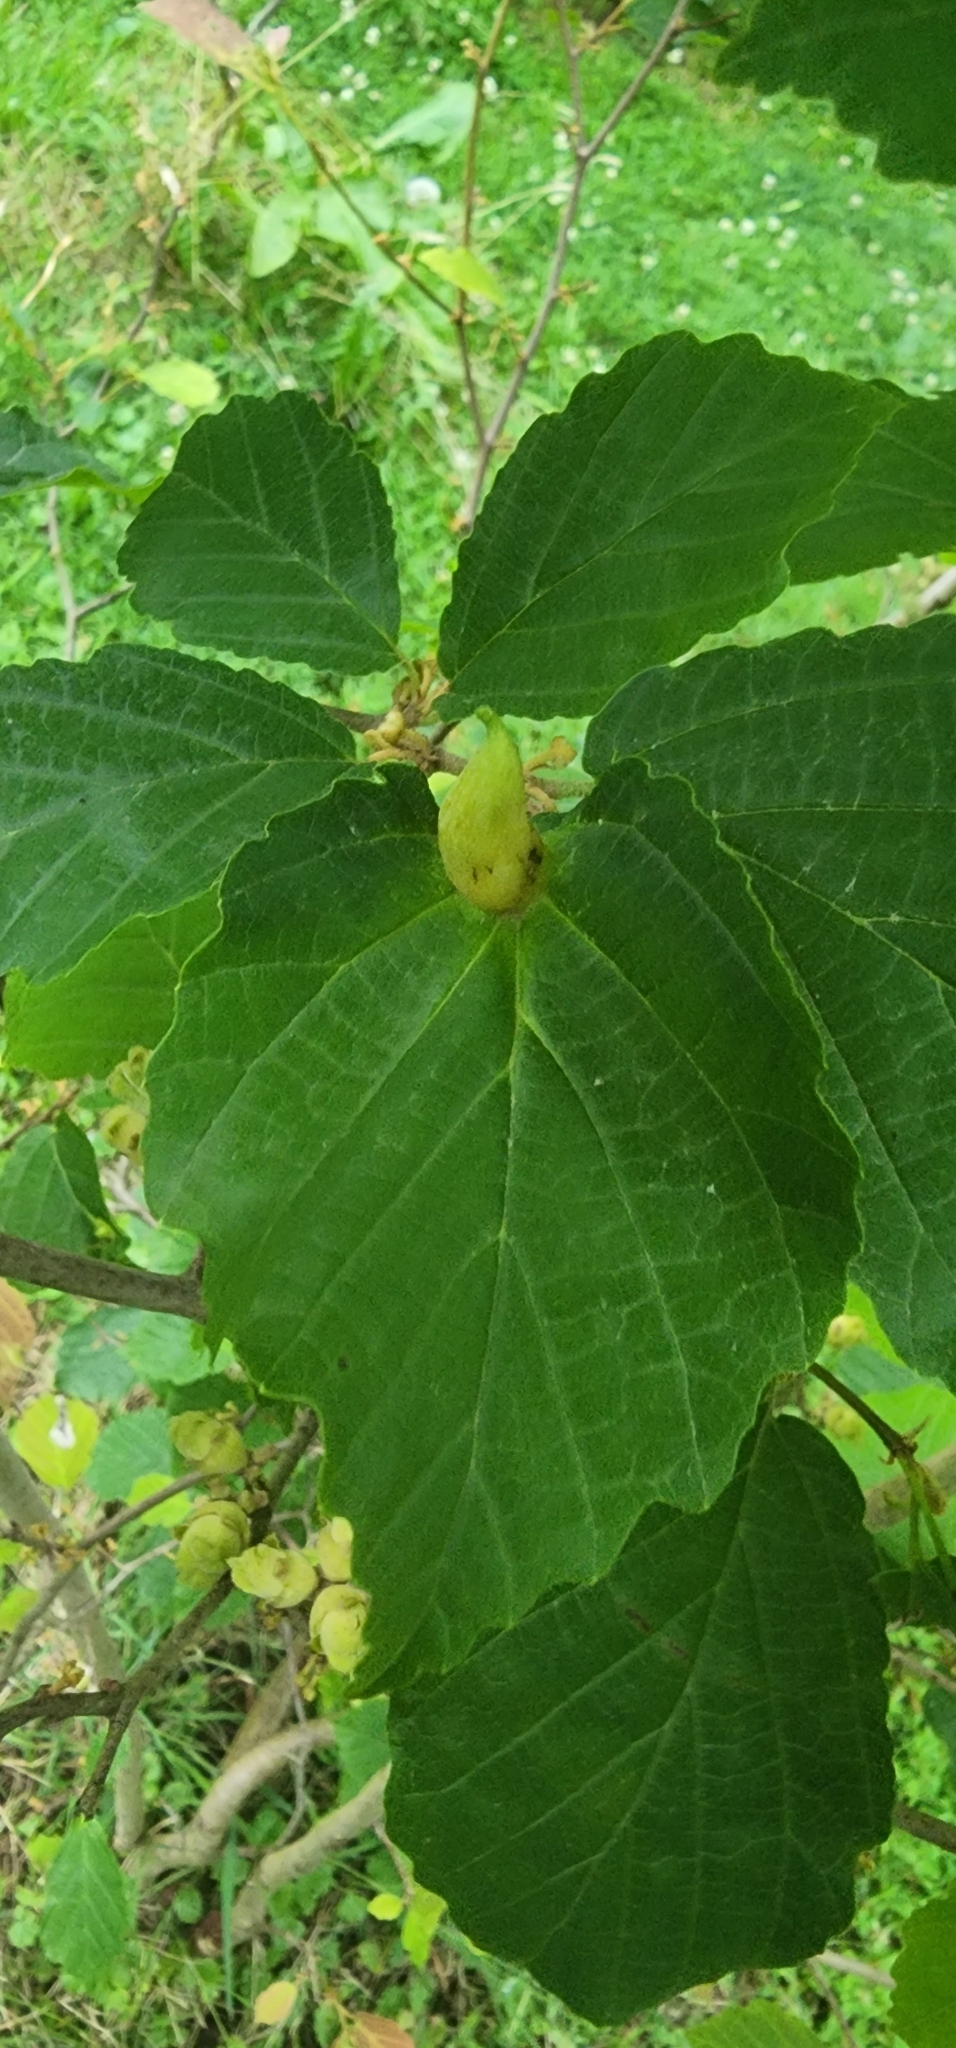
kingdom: Animalia
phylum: Arthropoda
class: Insecta
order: Hemiptera
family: Aphididae
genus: Hormaphis
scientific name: Hormaphis hamamelidis
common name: Witch-hazel cone gall aphid
